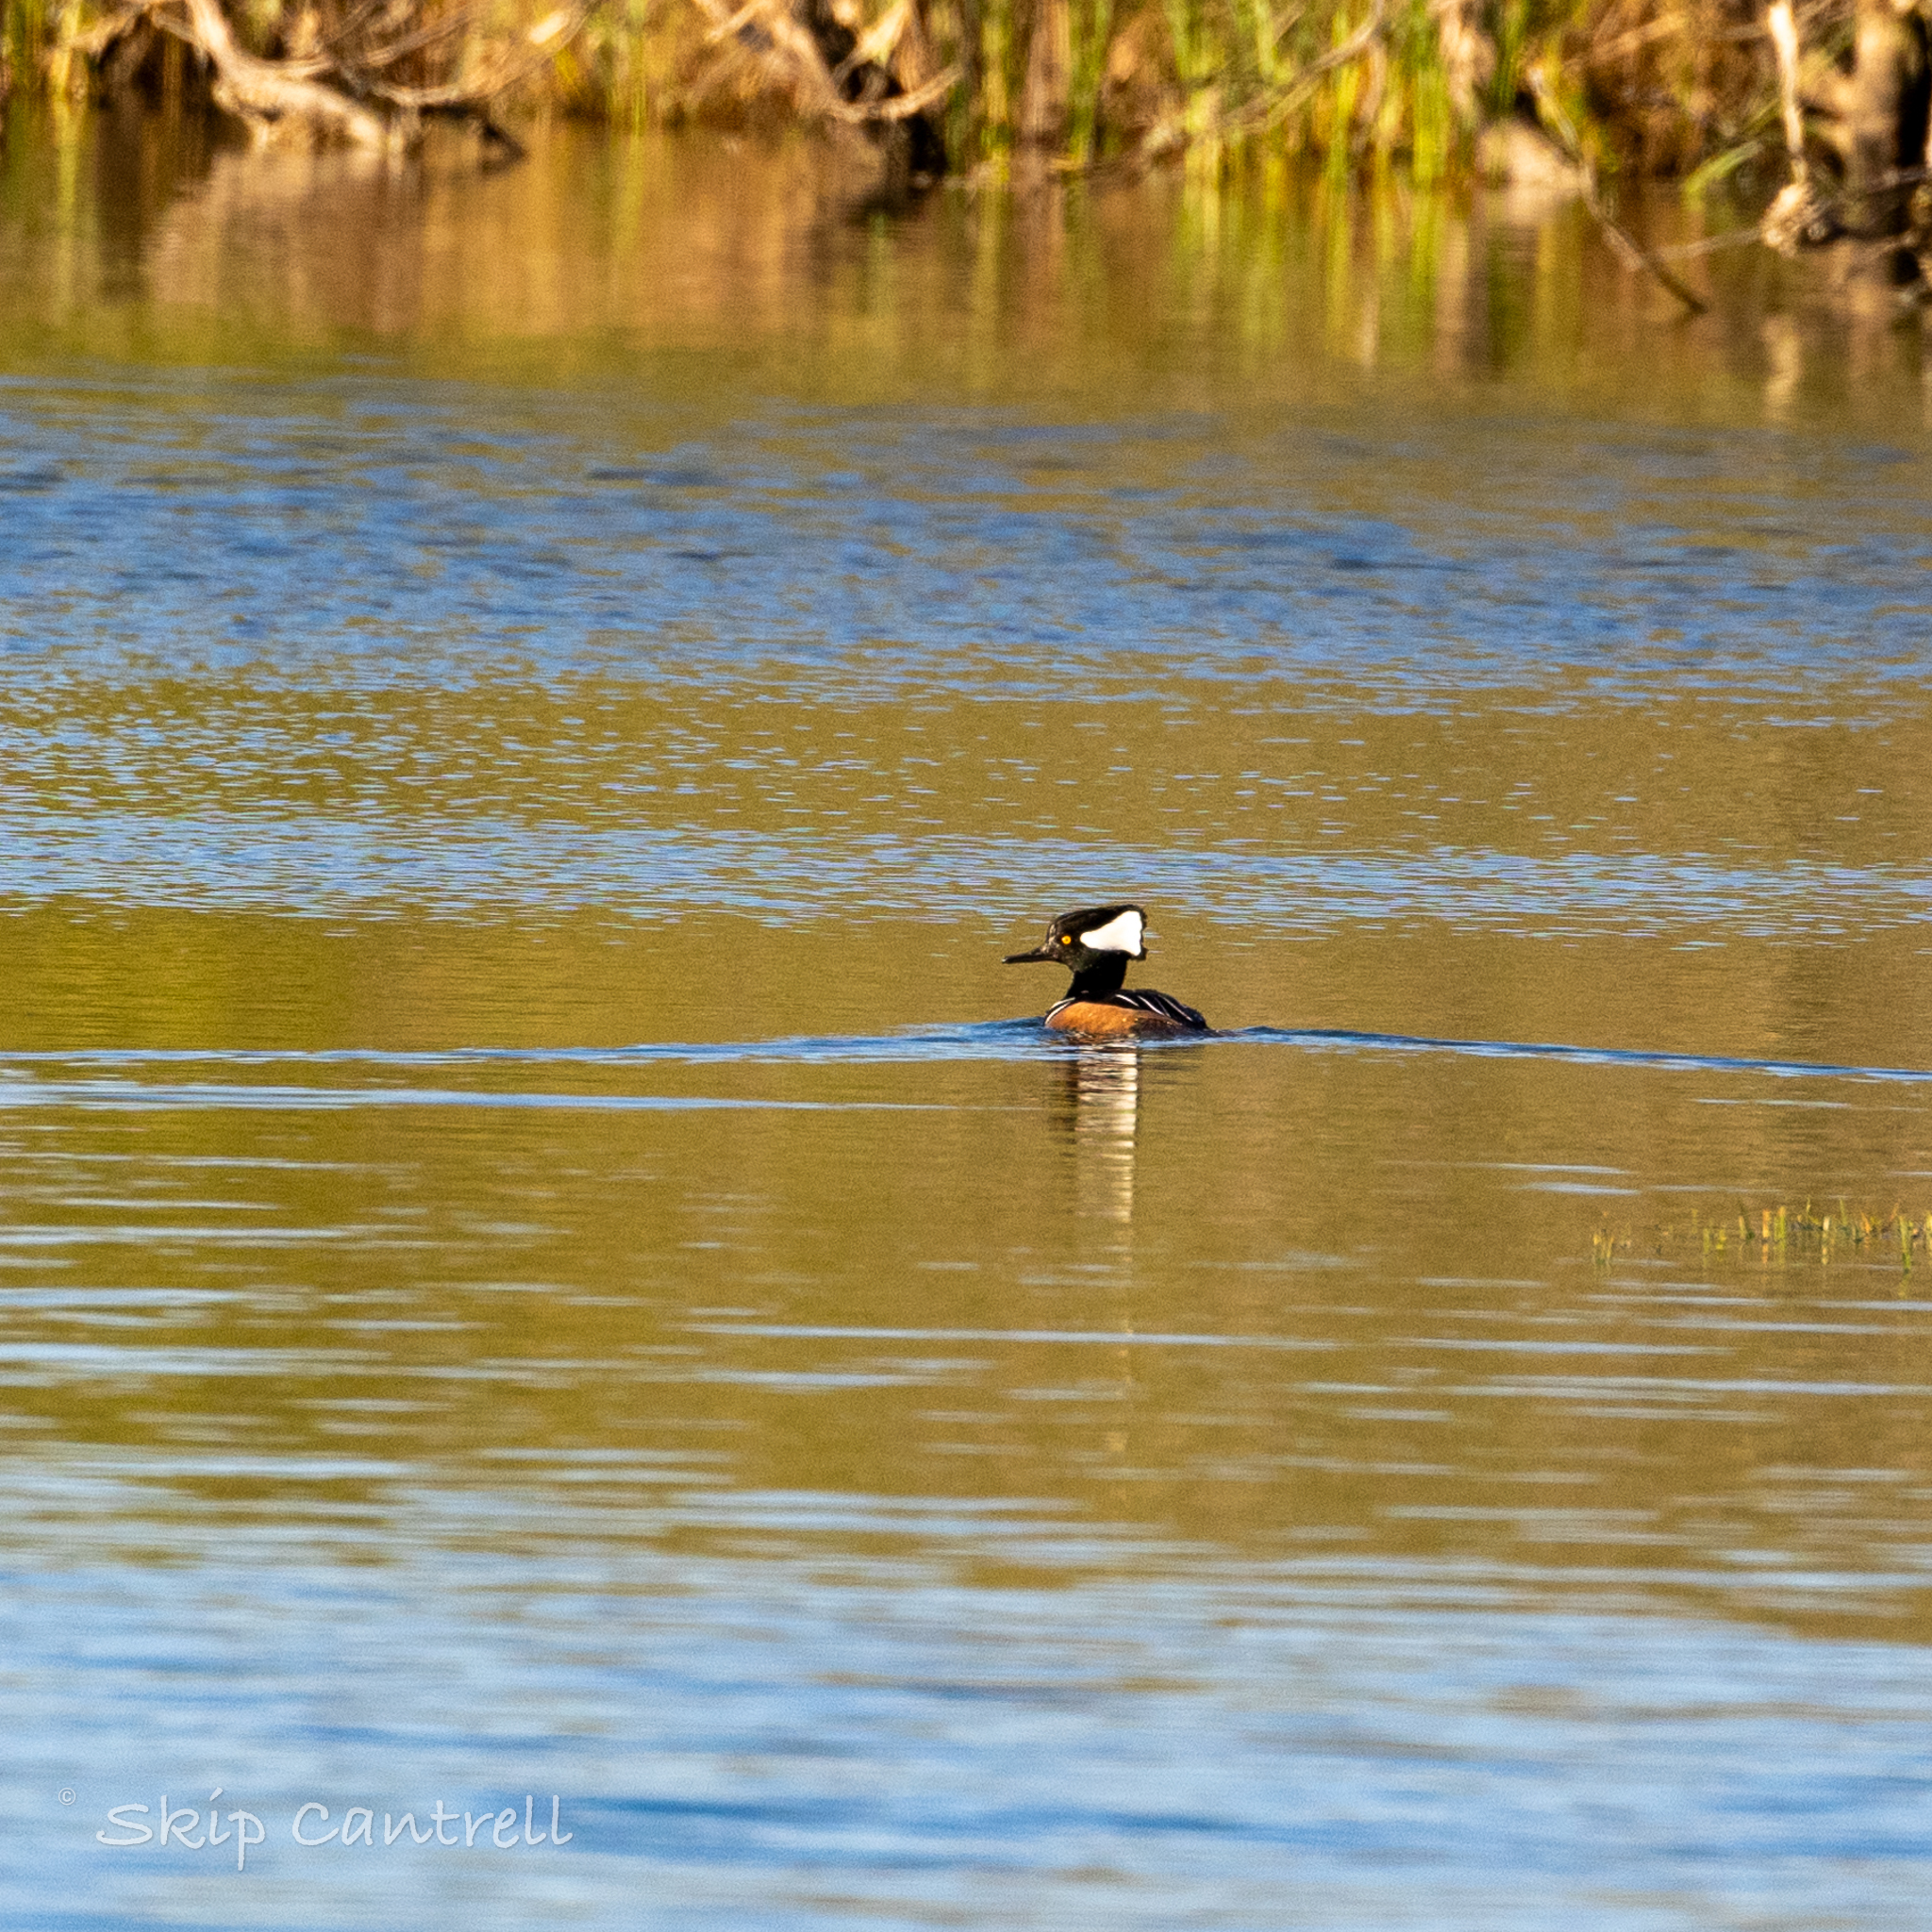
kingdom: Animalia
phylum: Chordata
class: Aves
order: Anseriformes
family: Anatidae
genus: Lophodytes
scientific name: Lophodytes cucullatus
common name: Hooded merganser
